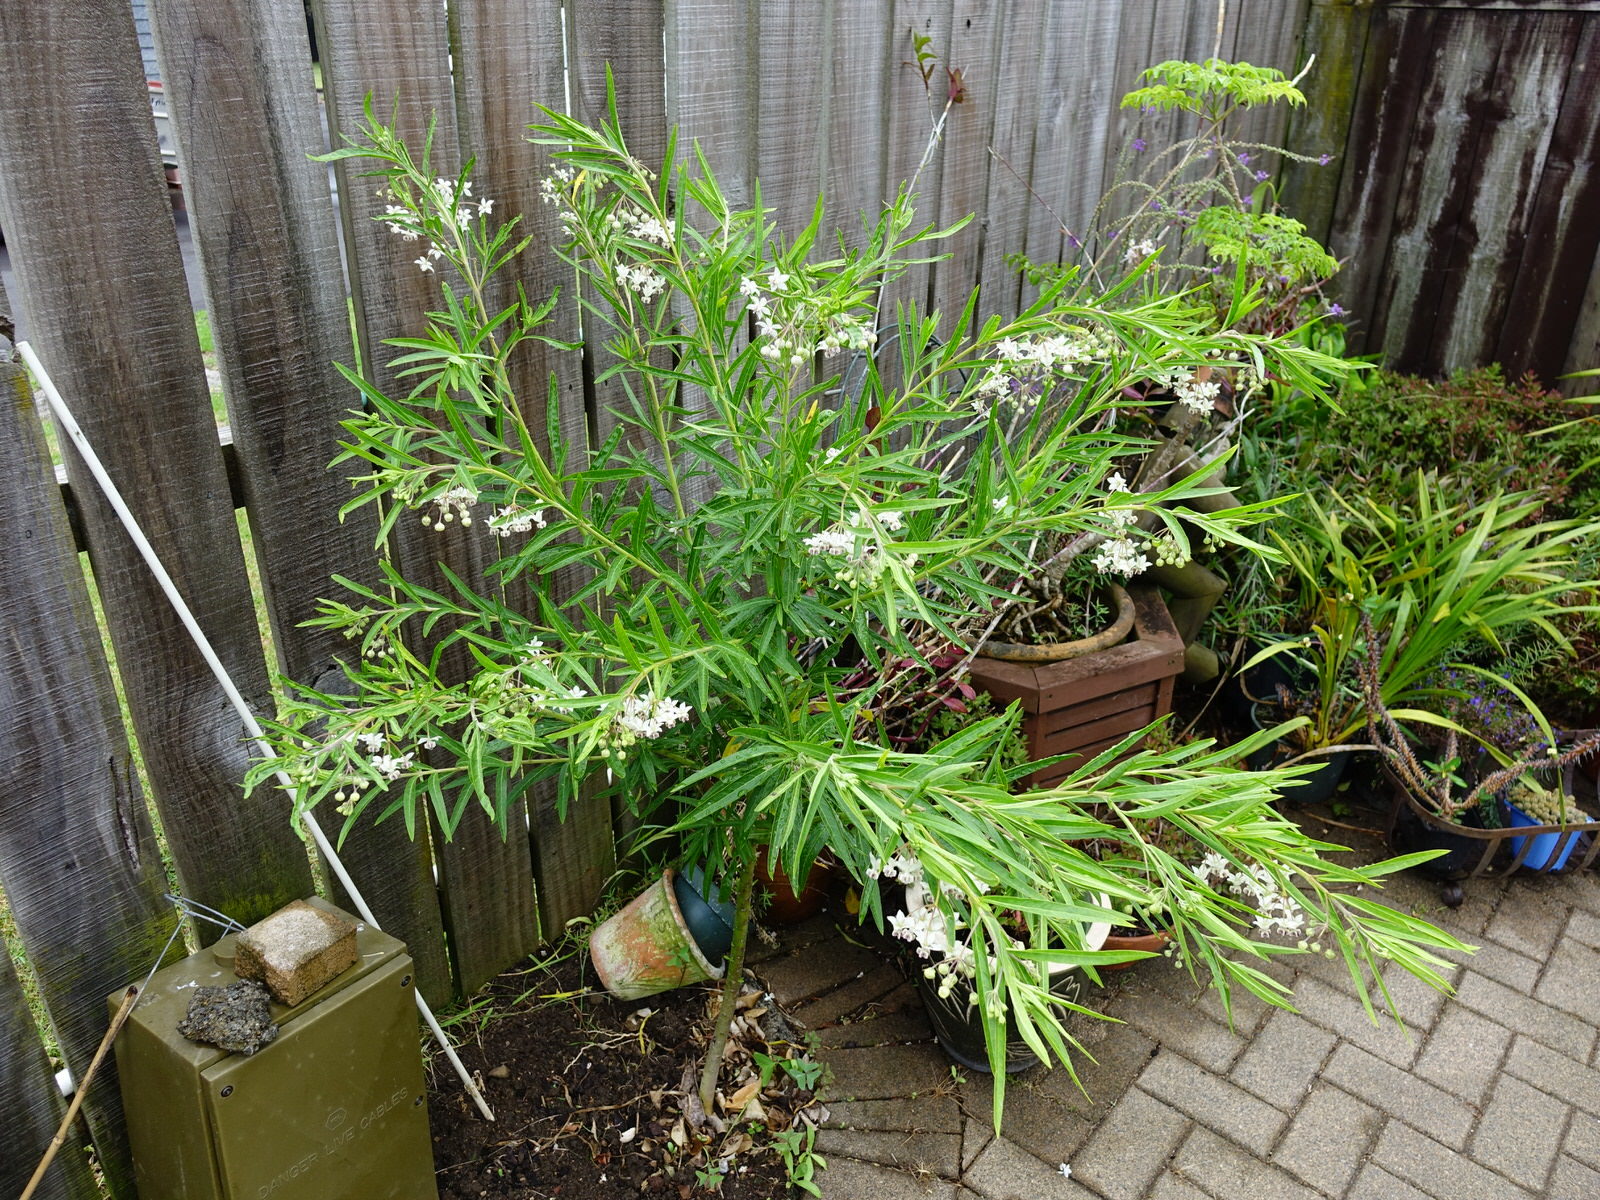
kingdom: Animalia
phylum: Arthropoda
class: Insecta
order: Lepidoptera
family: Nymphalidae
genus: Danaus
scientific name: Danaus plexippus
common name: Monarch
